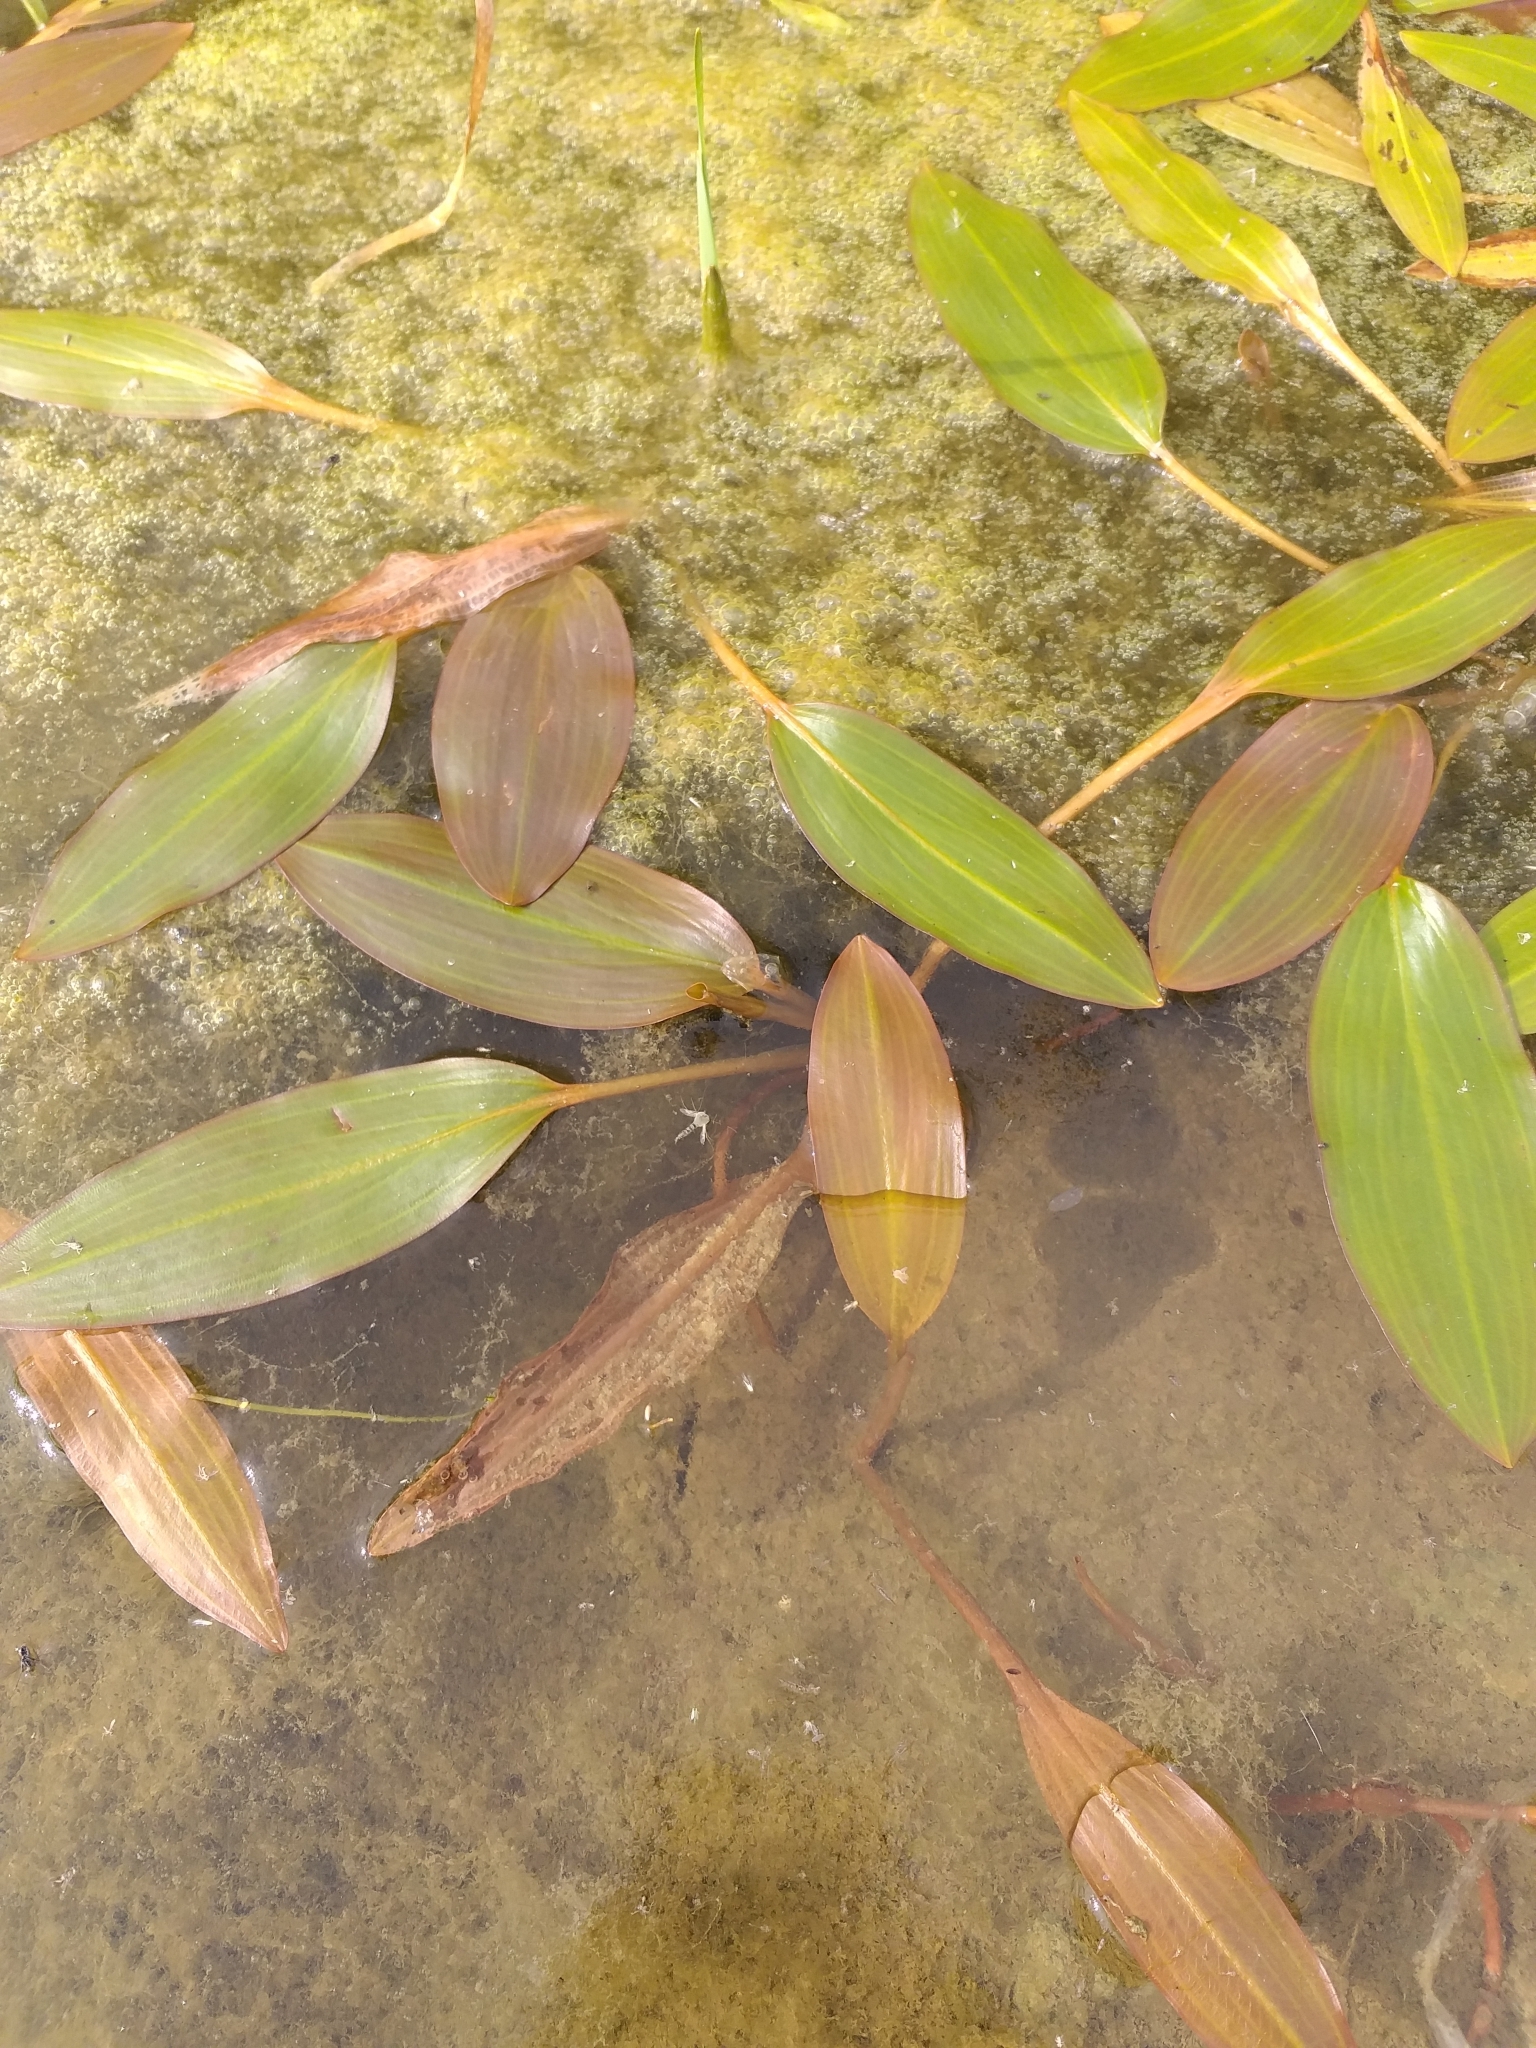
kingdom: Plantae
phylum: Tracheophyta
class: Liliopsida
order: Alismatales
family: Potamogetonaceae
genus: Potamogeton
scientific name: Potamogeton nodosus
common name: Loddon pondweed
